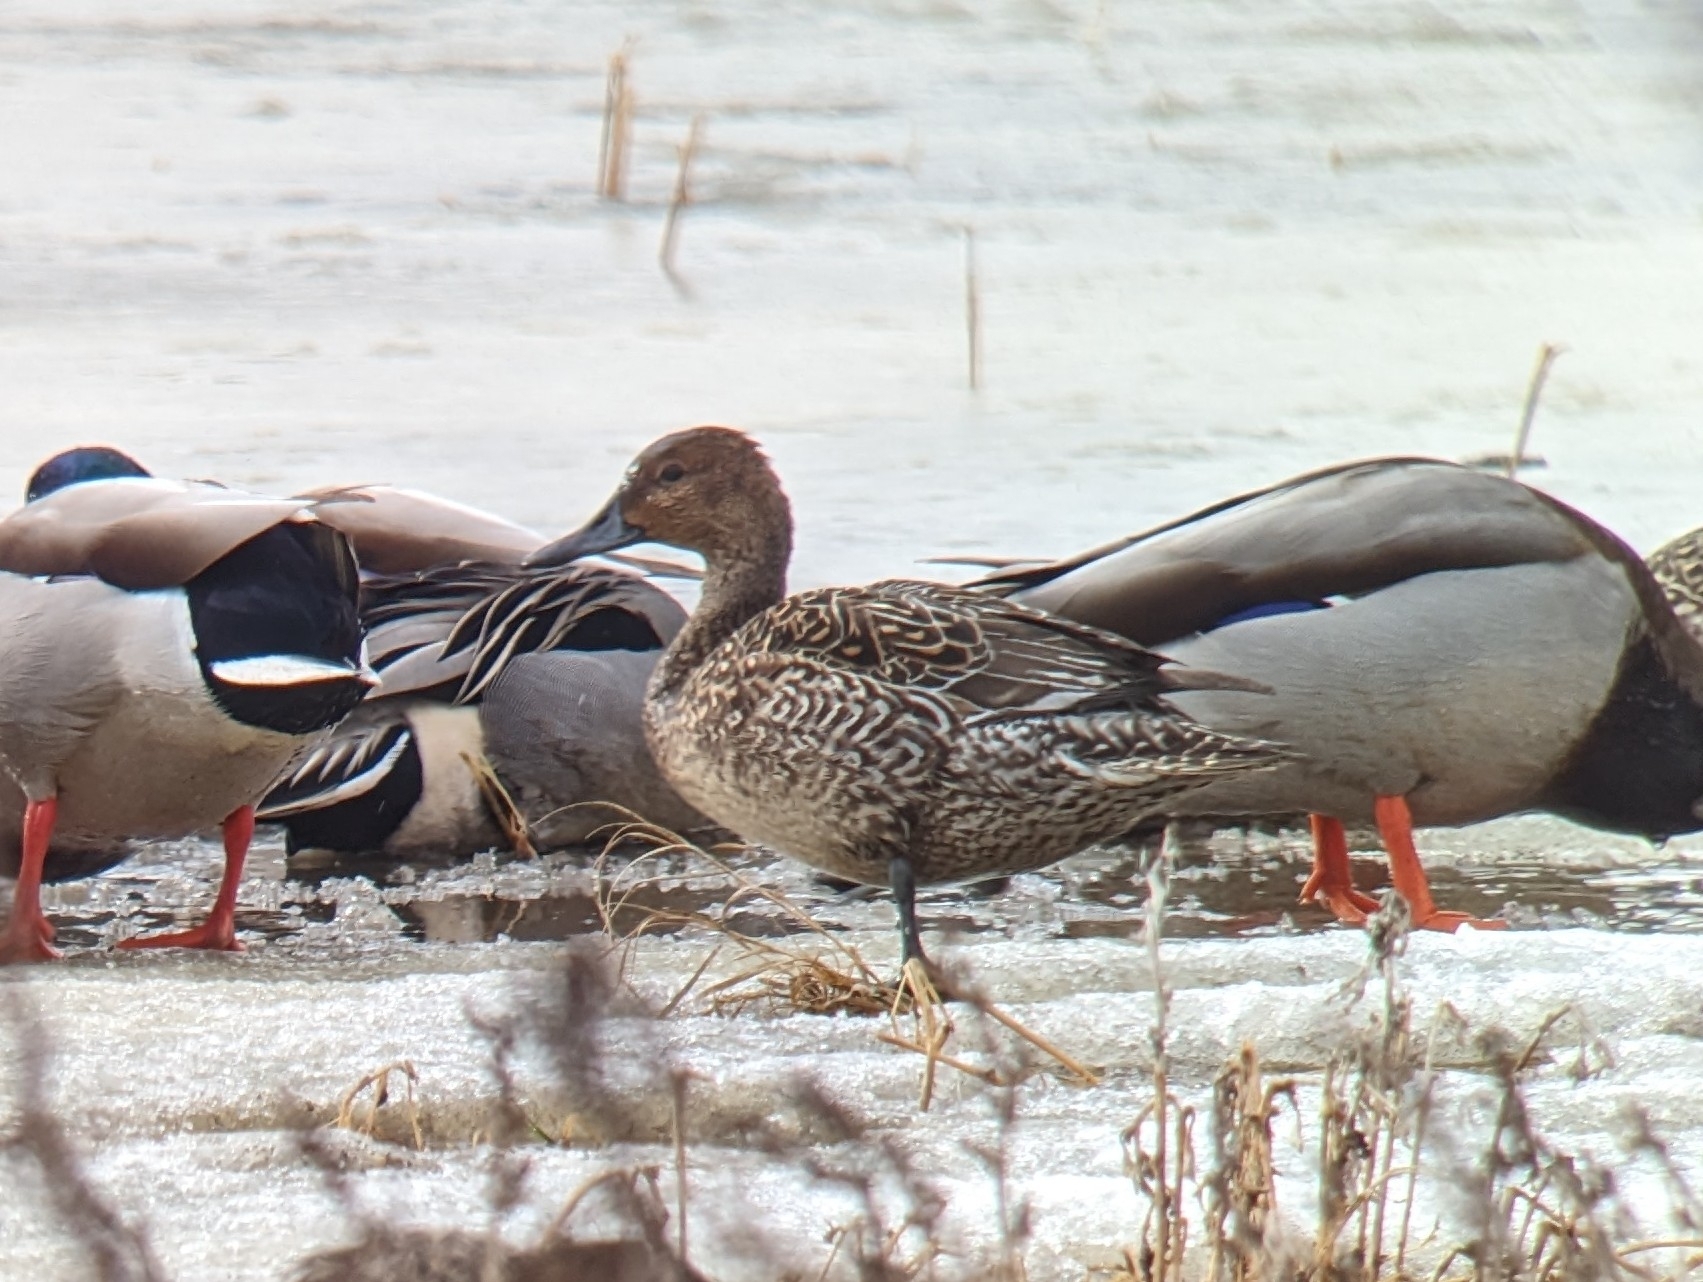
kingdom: Animalia
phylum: Chordata
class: Aves
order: Anseriformes
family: Anatidae
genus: Anas
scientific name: Anas acuta
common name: Northern pintail
